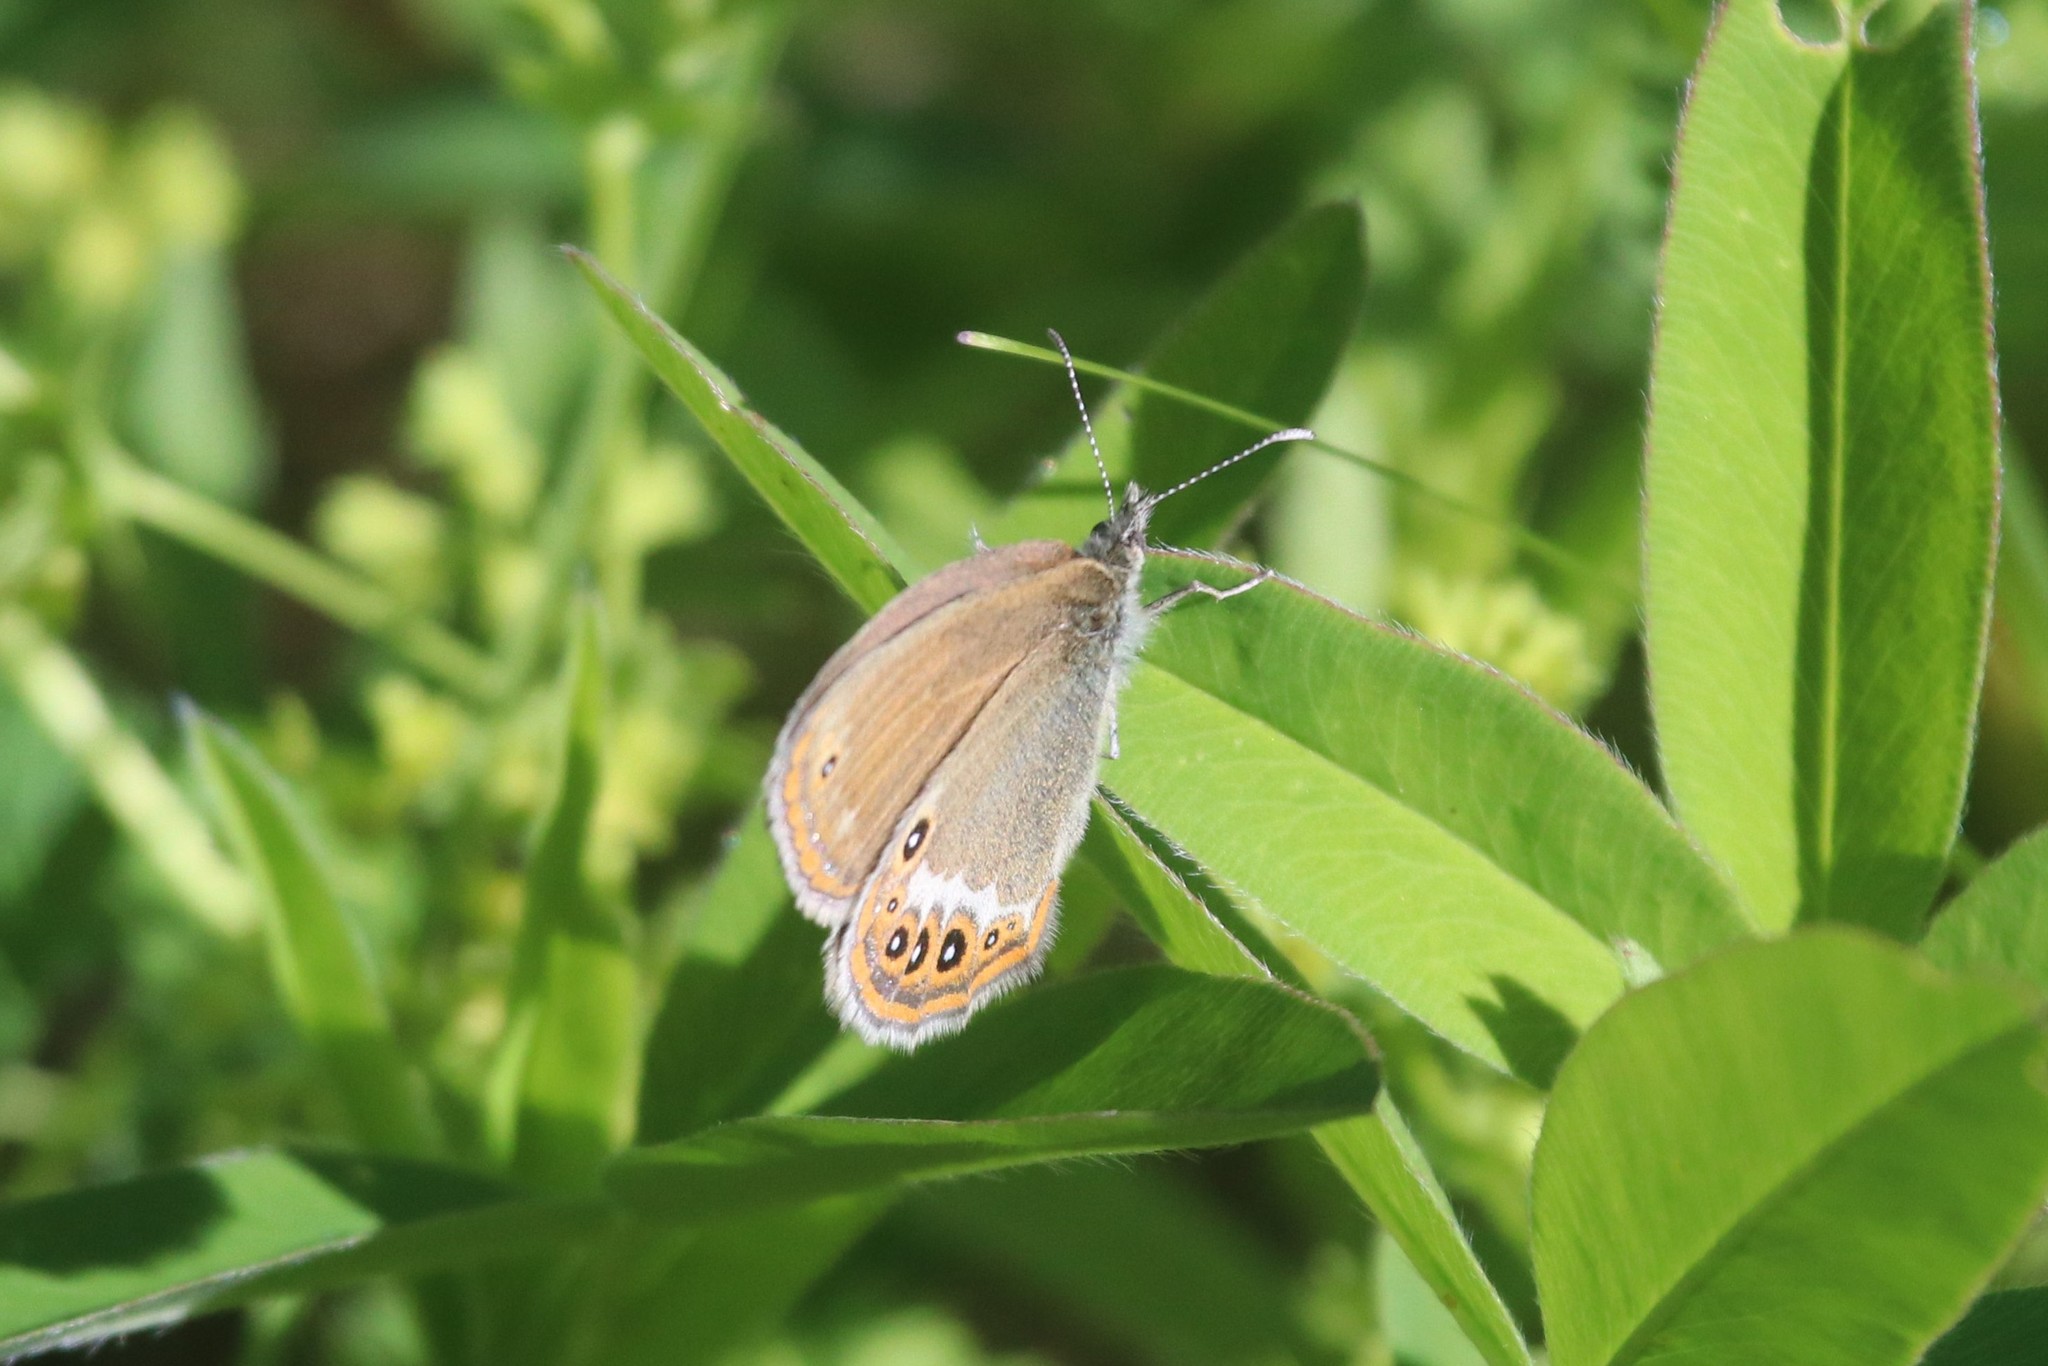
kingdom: Animalia
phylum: Arthropoda
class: Insecta
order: Lepidoptera
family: Nymphalidae
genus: Coenonympha
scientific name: Coenonympha hero
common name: Scarce heath
